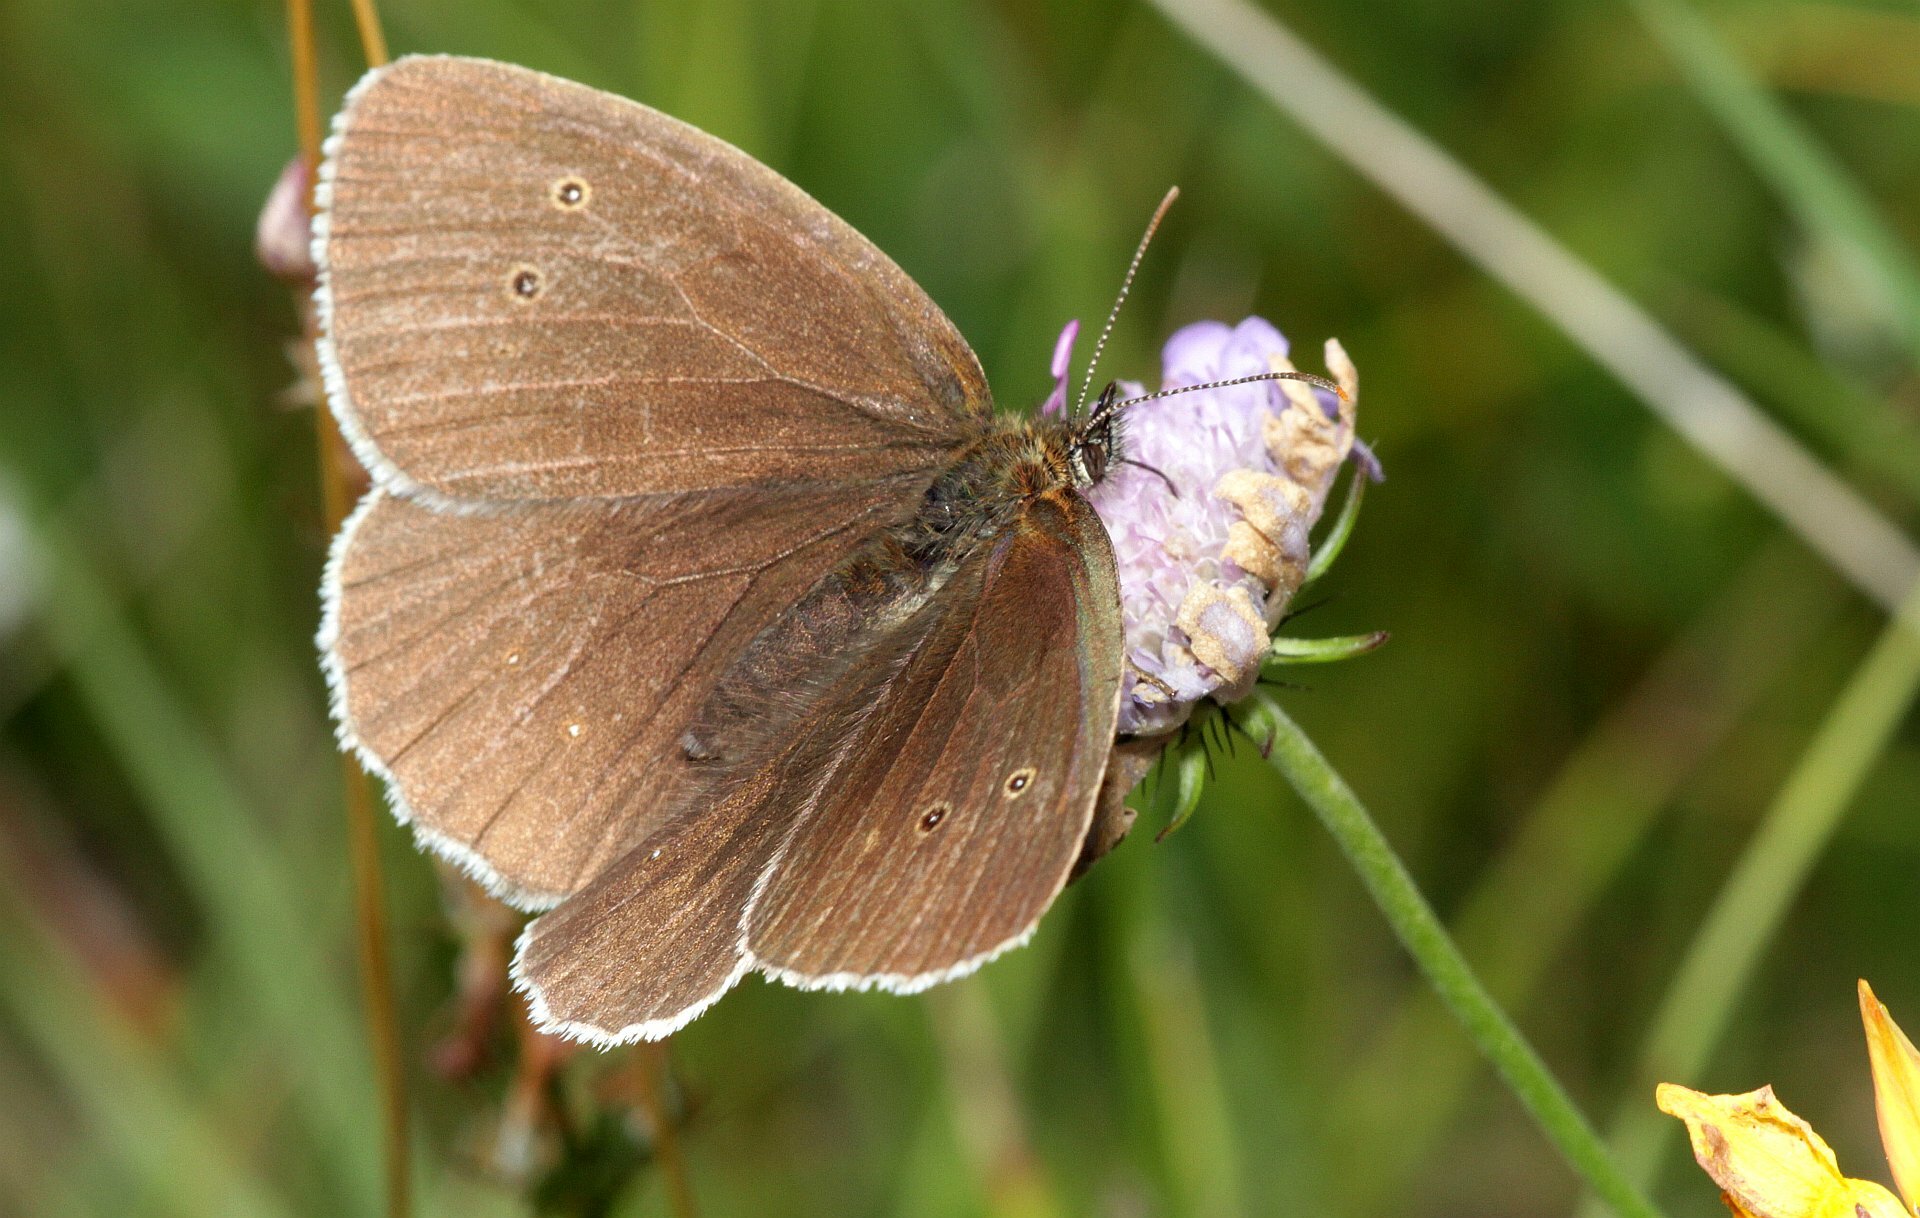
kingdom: Animalia
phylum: Arthropoda
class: Insecta
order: Lepidoptera
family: Nymphalidae
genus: Aphantopus
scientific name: Aphantopus hyperantus
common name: Ringlet
